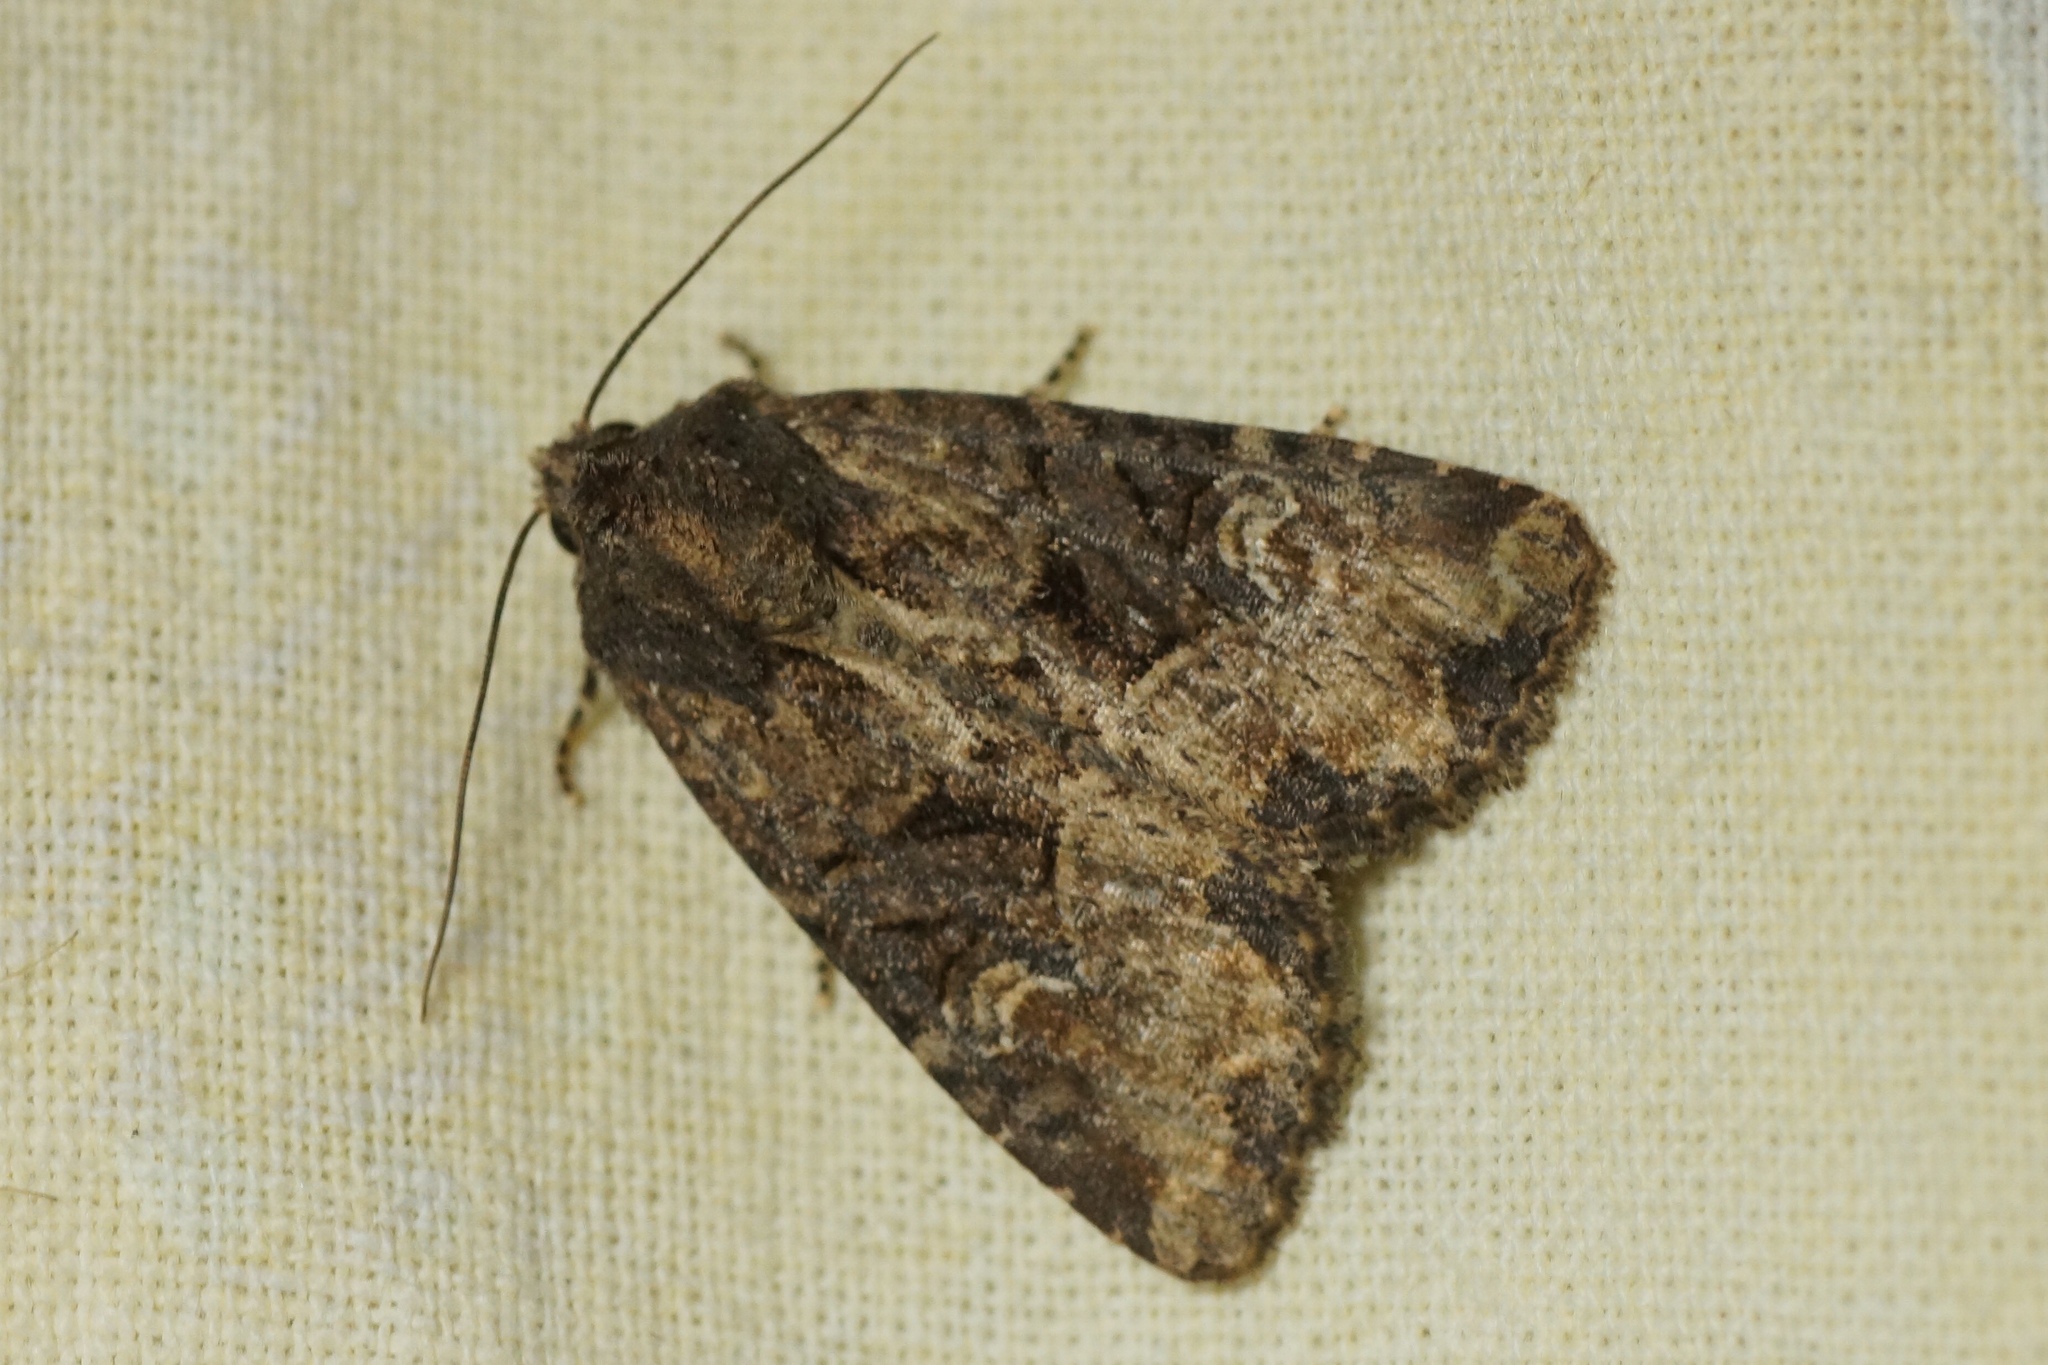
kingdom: Animalia
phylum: Arthropoda
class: Insecta
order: Lepidoptera
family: Noctuidae
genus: Mesapamea
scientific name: Mesapamea
